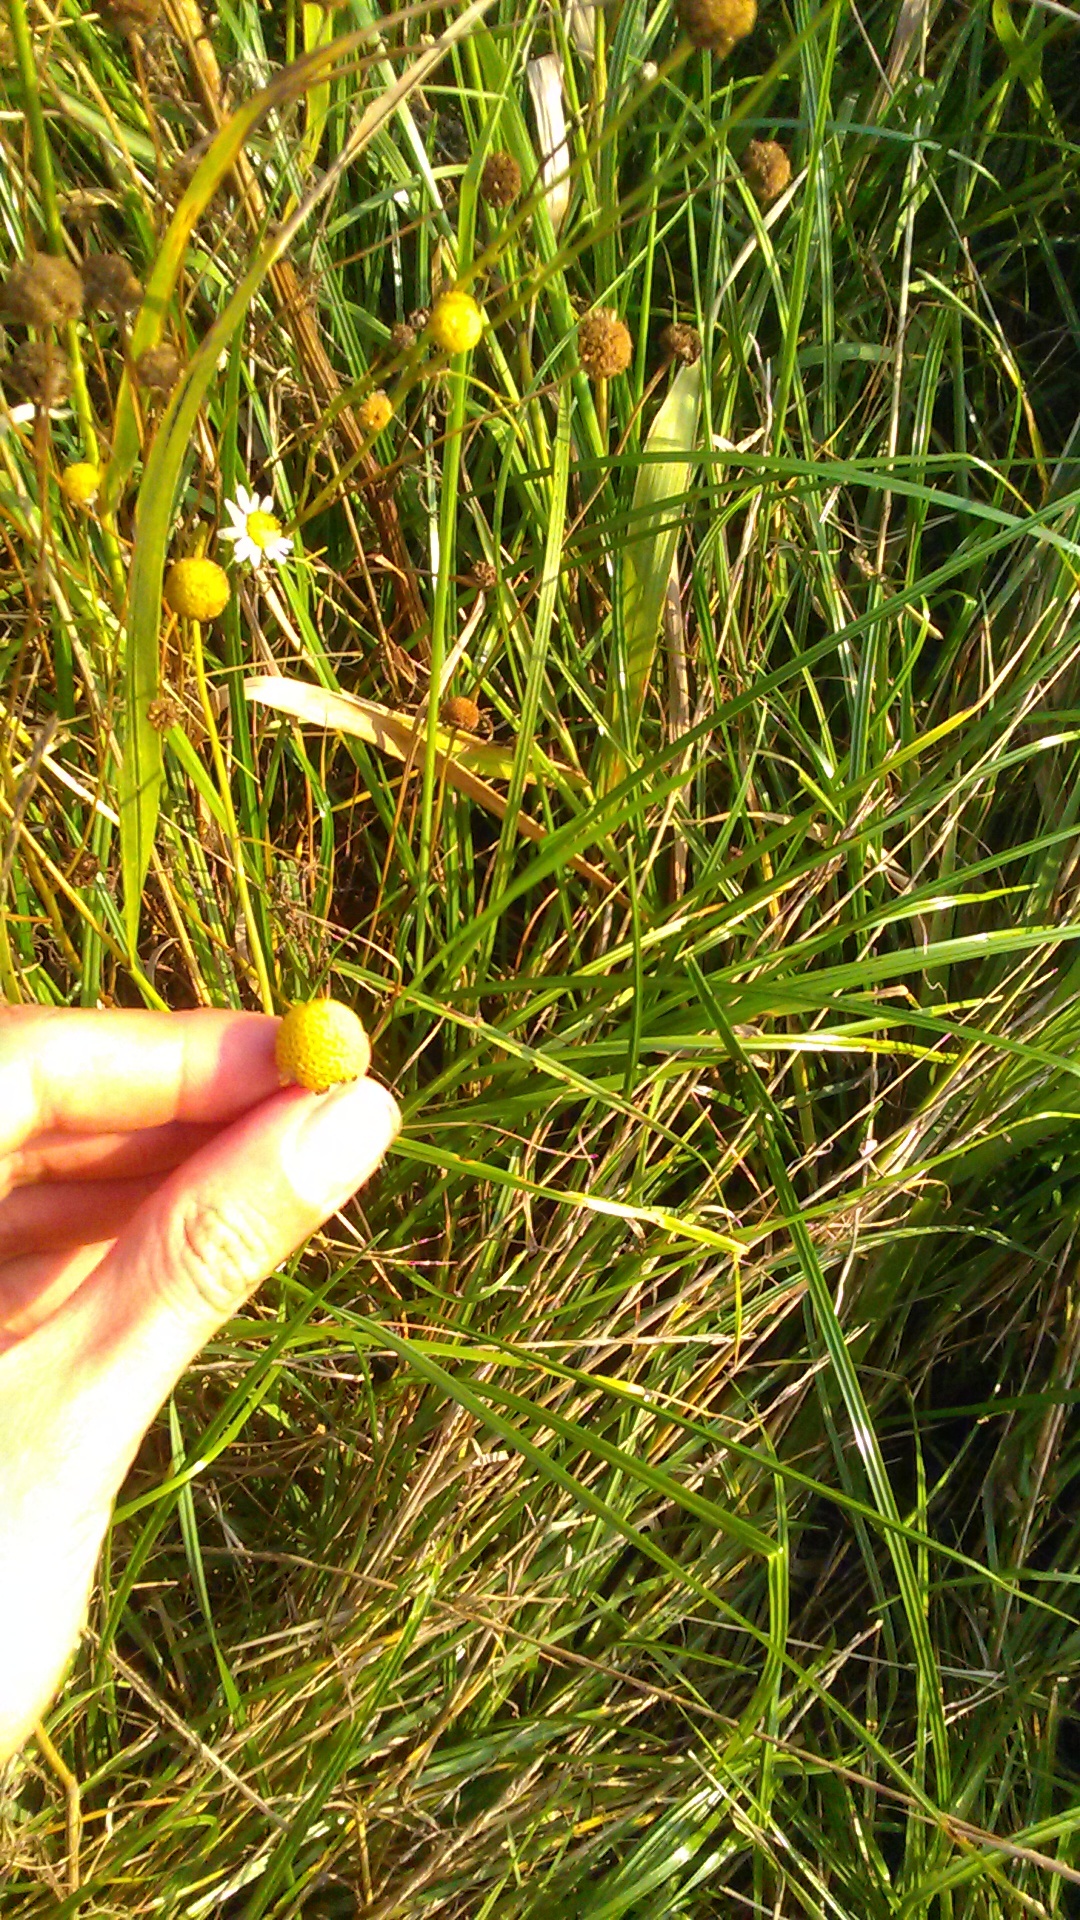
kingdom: Plantae
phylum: Tracheophyta
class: Magnoliopsida
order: Asterales
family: Asteraceae
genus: Tripleurospermum
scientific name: Tripleurospermum inodorum
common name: Scentless mayweed
